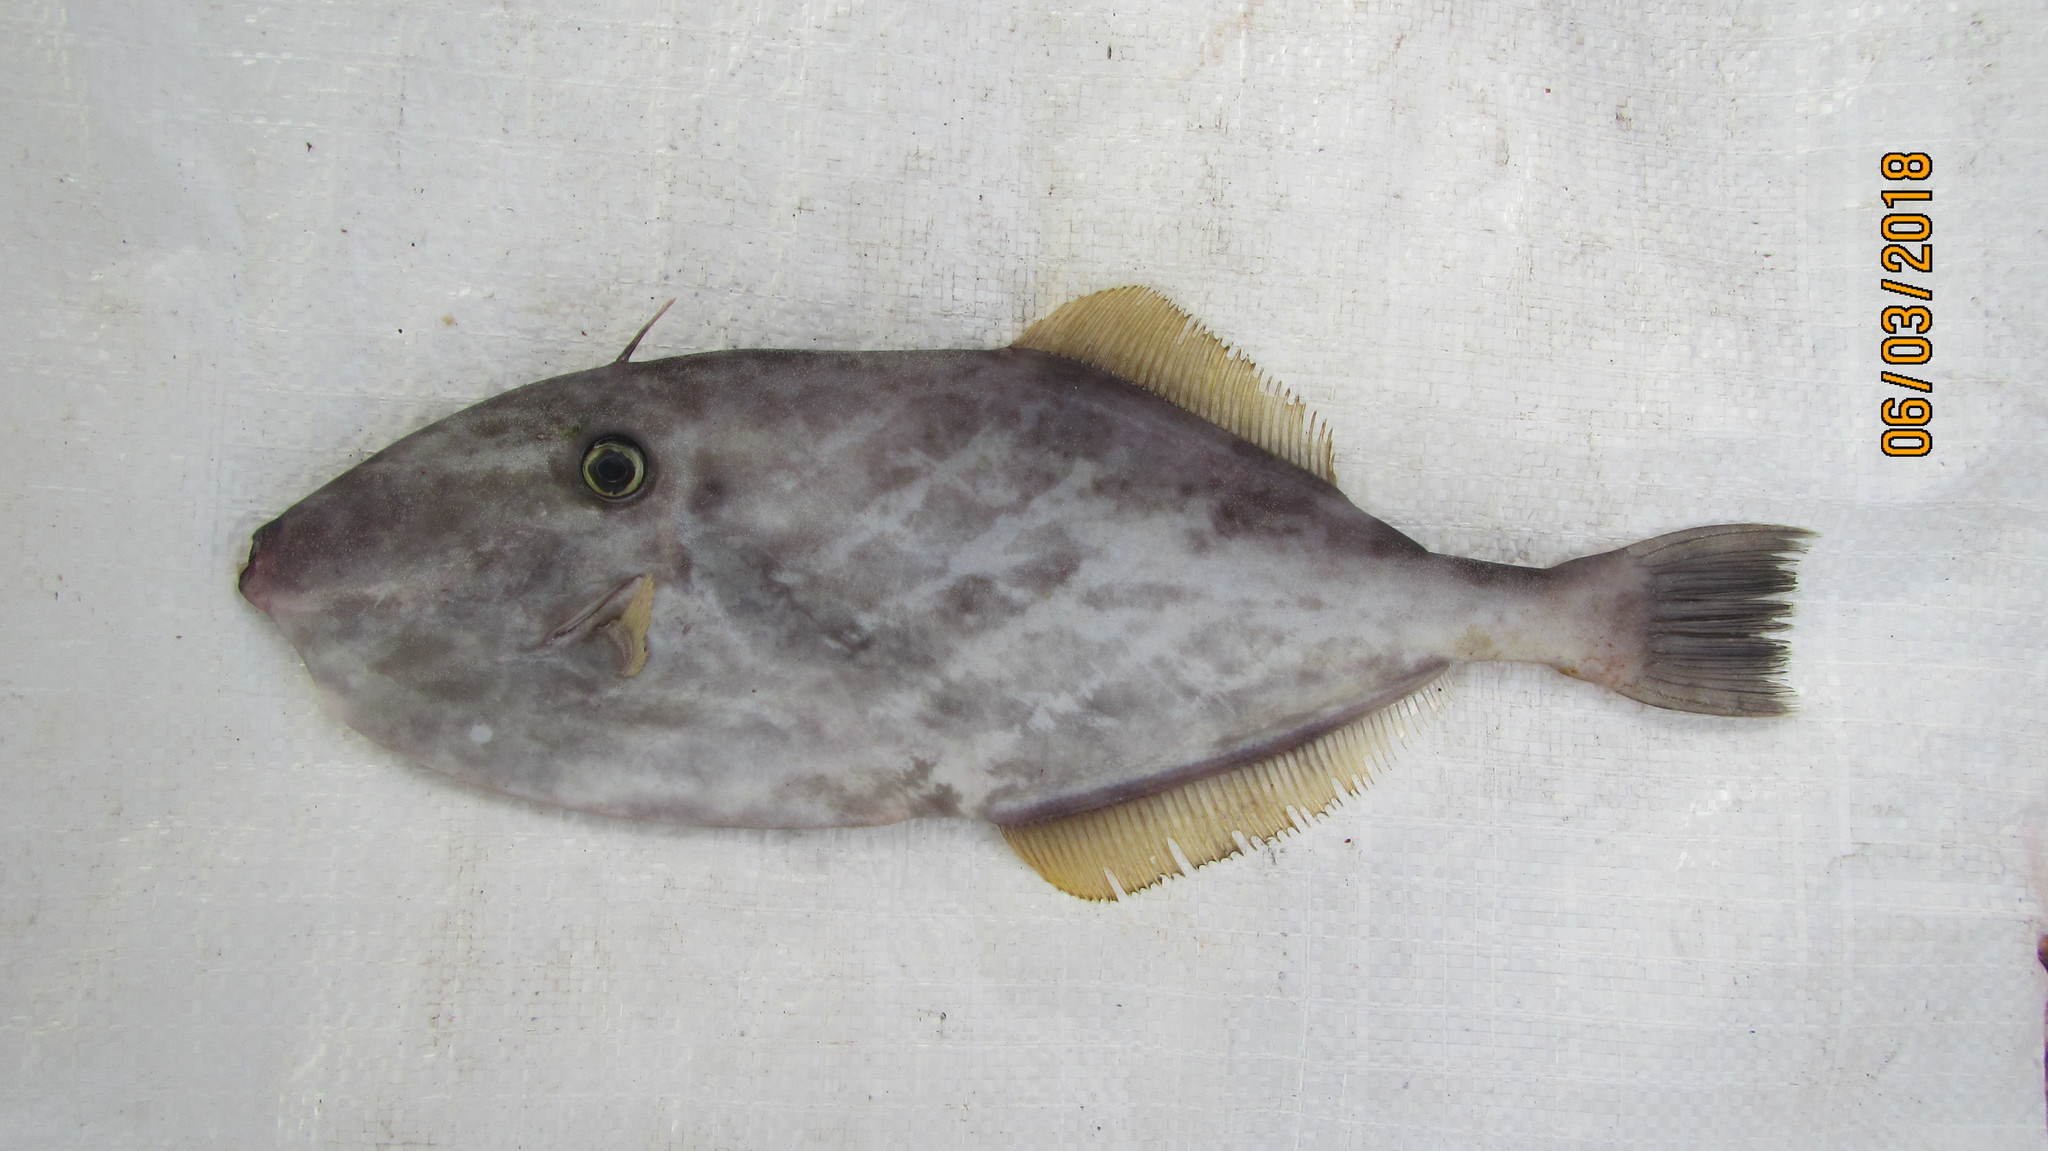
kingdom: Animalia
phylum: Chordata
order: Tetraodontiformes
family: Monacanthidae
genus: Aluterus
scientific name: Aluterus monoceros
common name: Batfish
